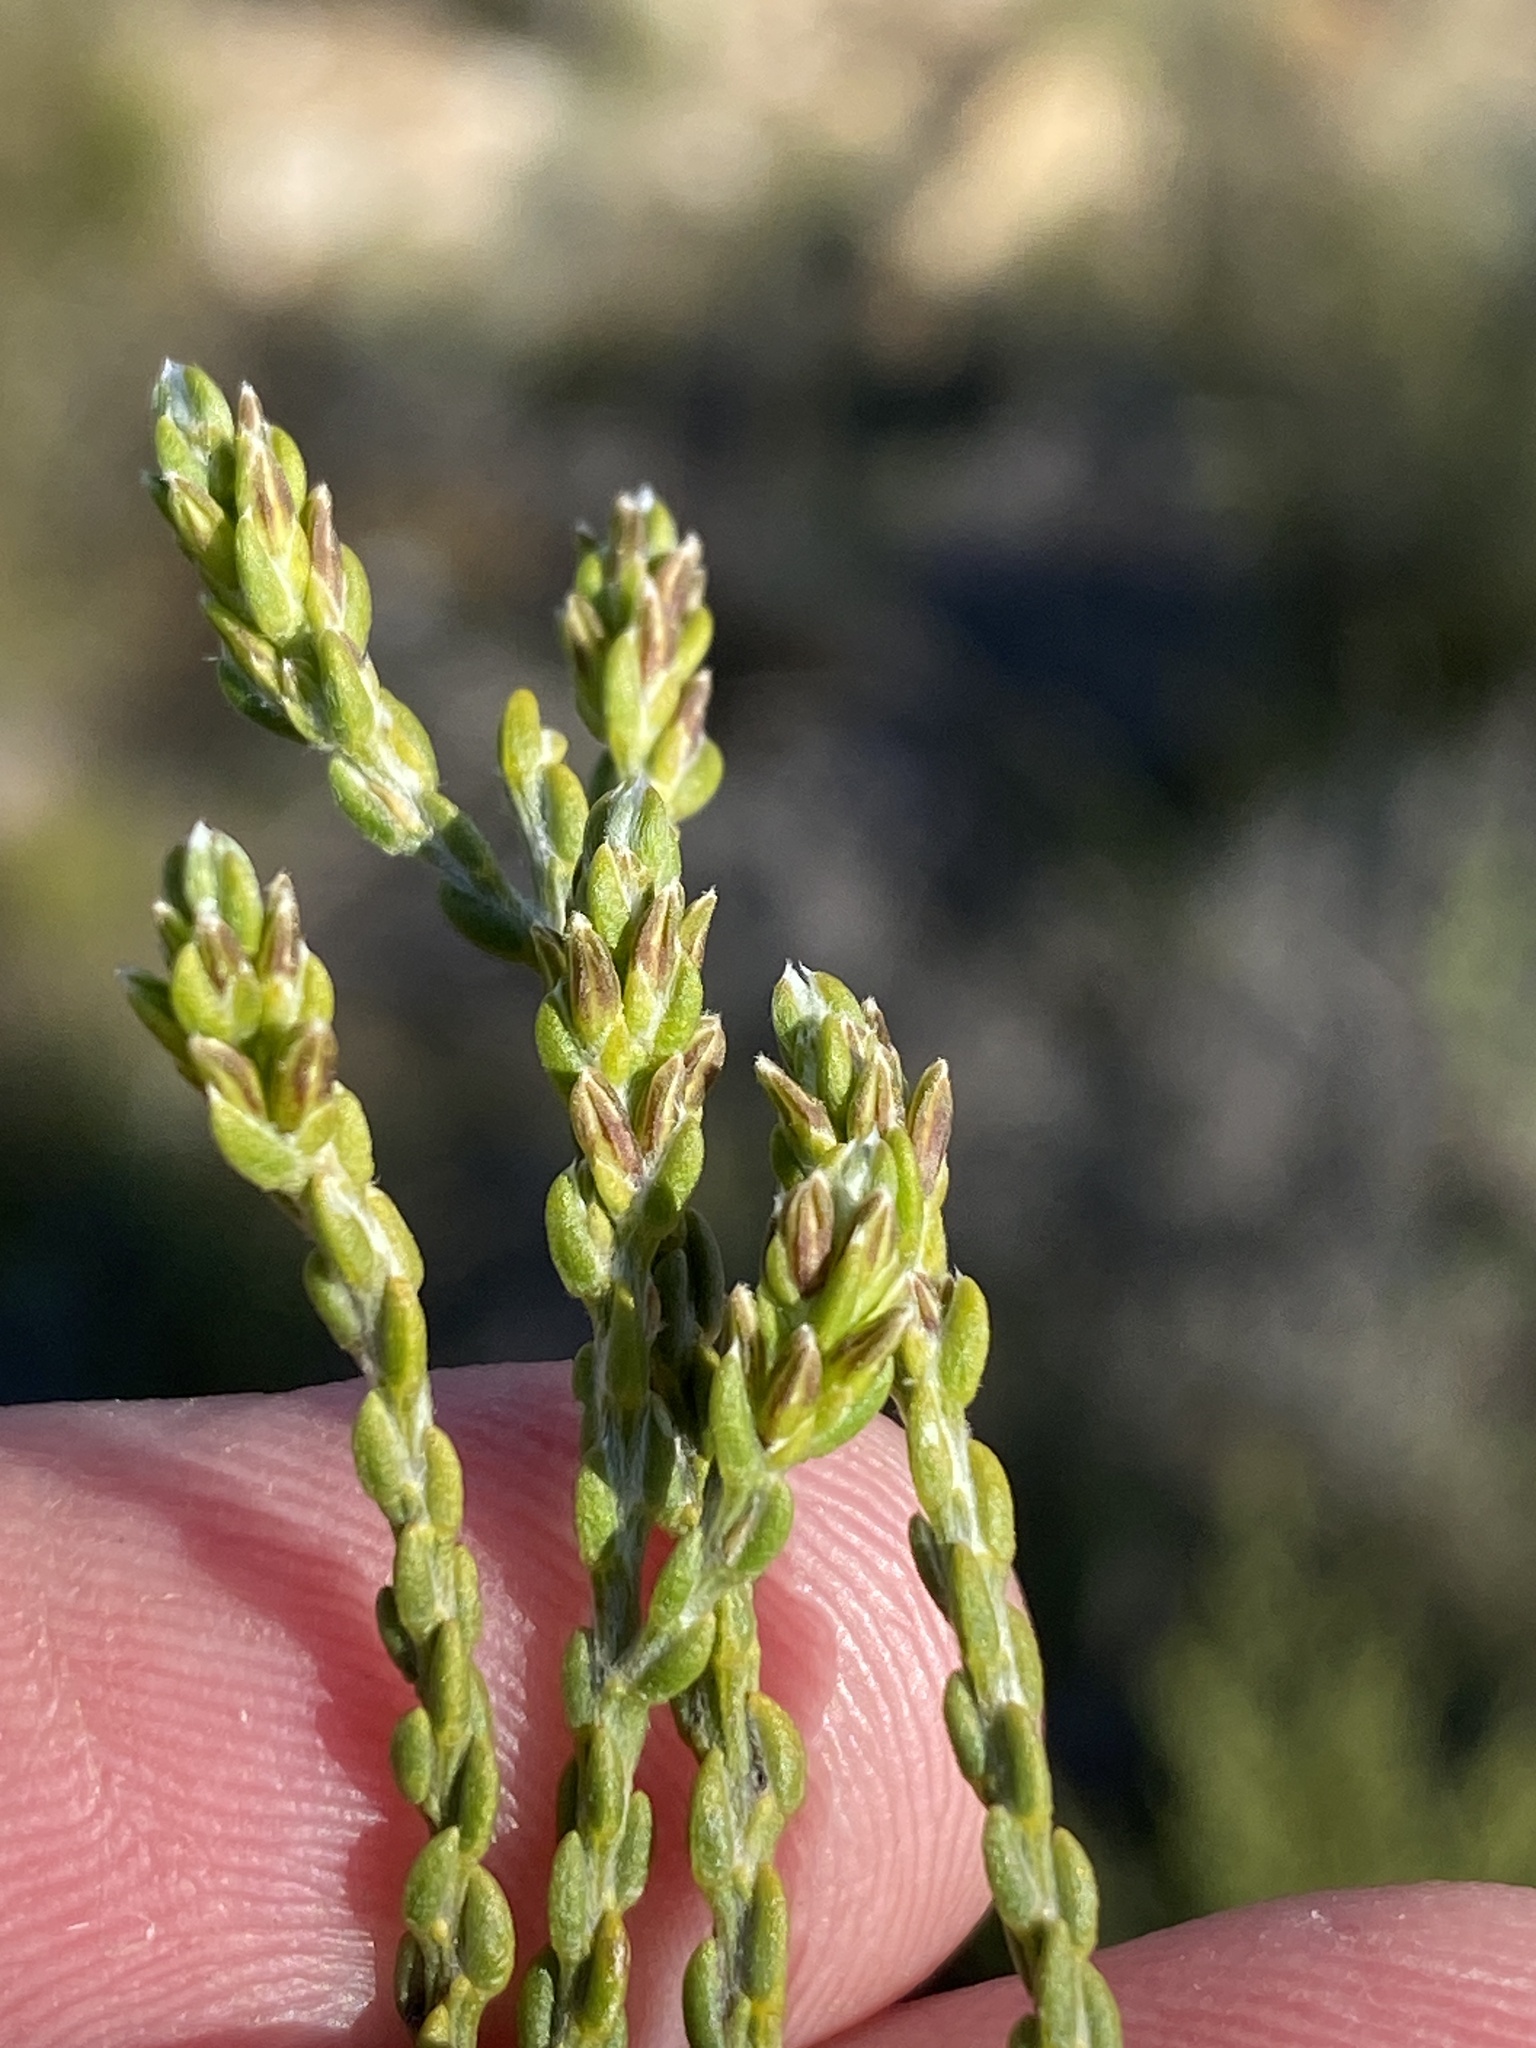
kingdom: Plantae
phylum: Tracheophyta
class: Magnoliopsida
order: Fabales
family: Fabaceae
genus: Amphithalea
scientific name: Amphithalea vlokii
